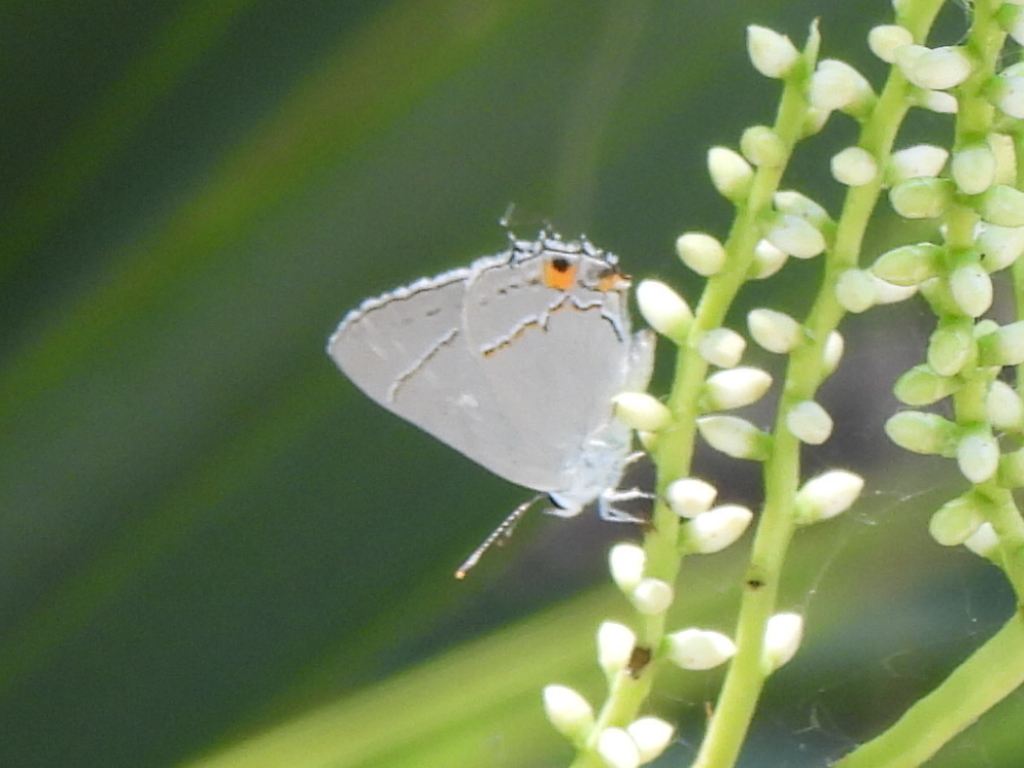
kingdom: Animalia
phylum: Arthropoda
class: Insecta
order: Lepidoptera
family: Lycaenidae
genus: Strymon
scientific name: Strymon melinus
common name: Gray hairstreak
